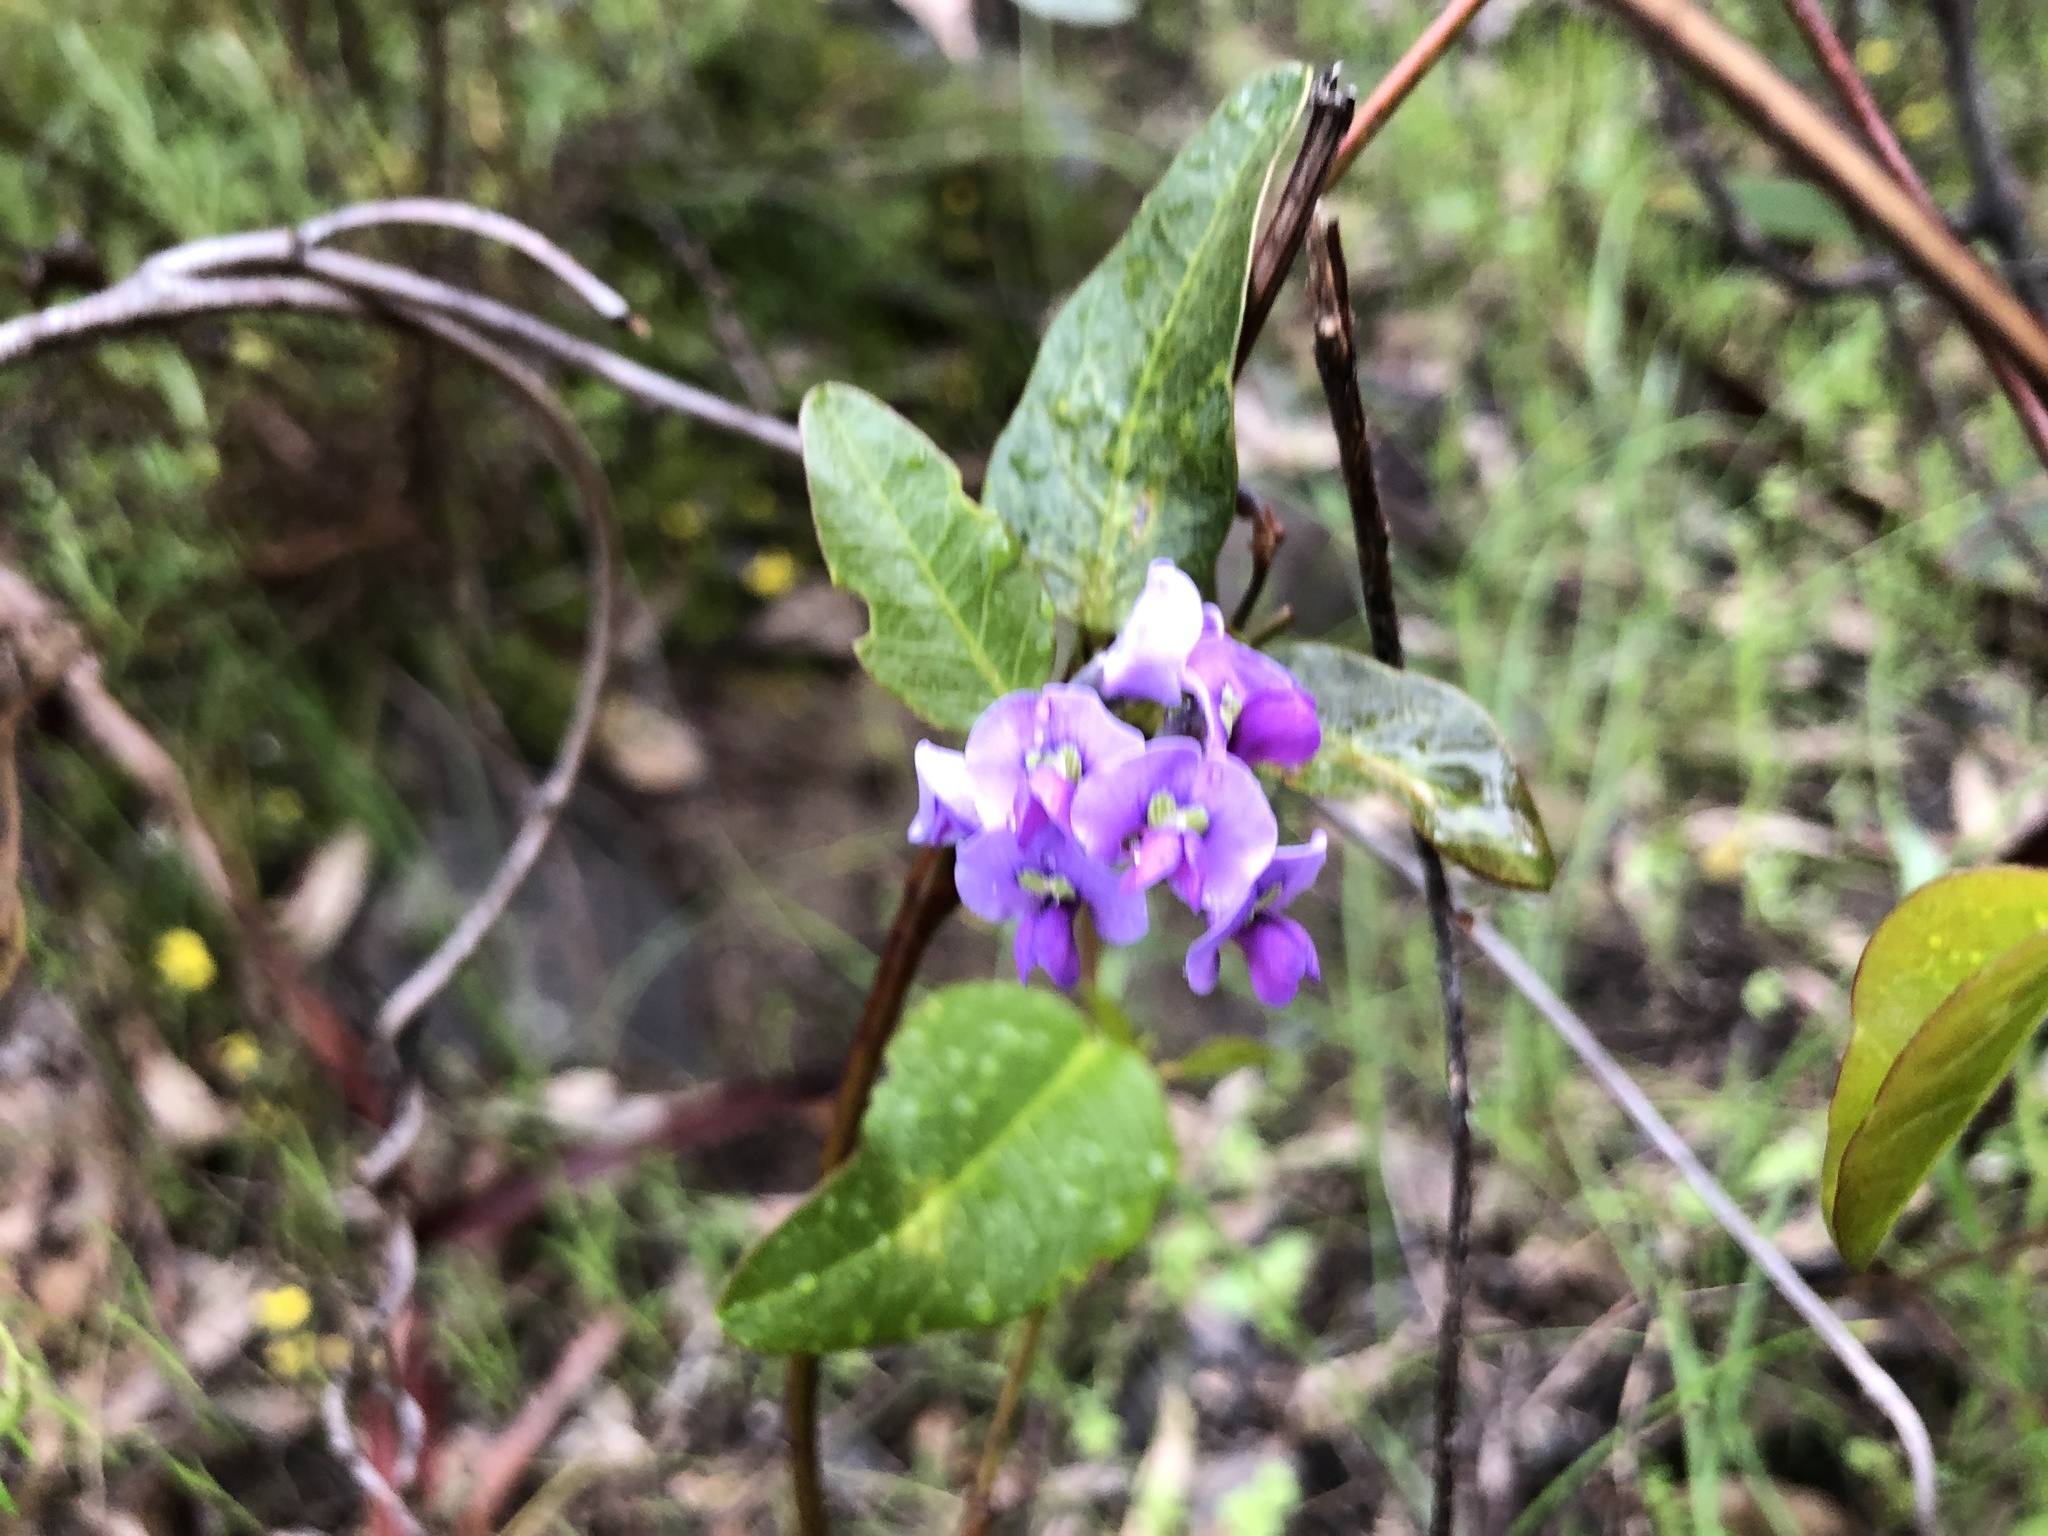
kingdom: Plantae
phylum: Tracheophyta
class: Magnoliopsida
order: Fabales
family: Fabaceae
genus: Hardenbergia
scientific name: Hardenbergia violacea
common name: Coral-pea
